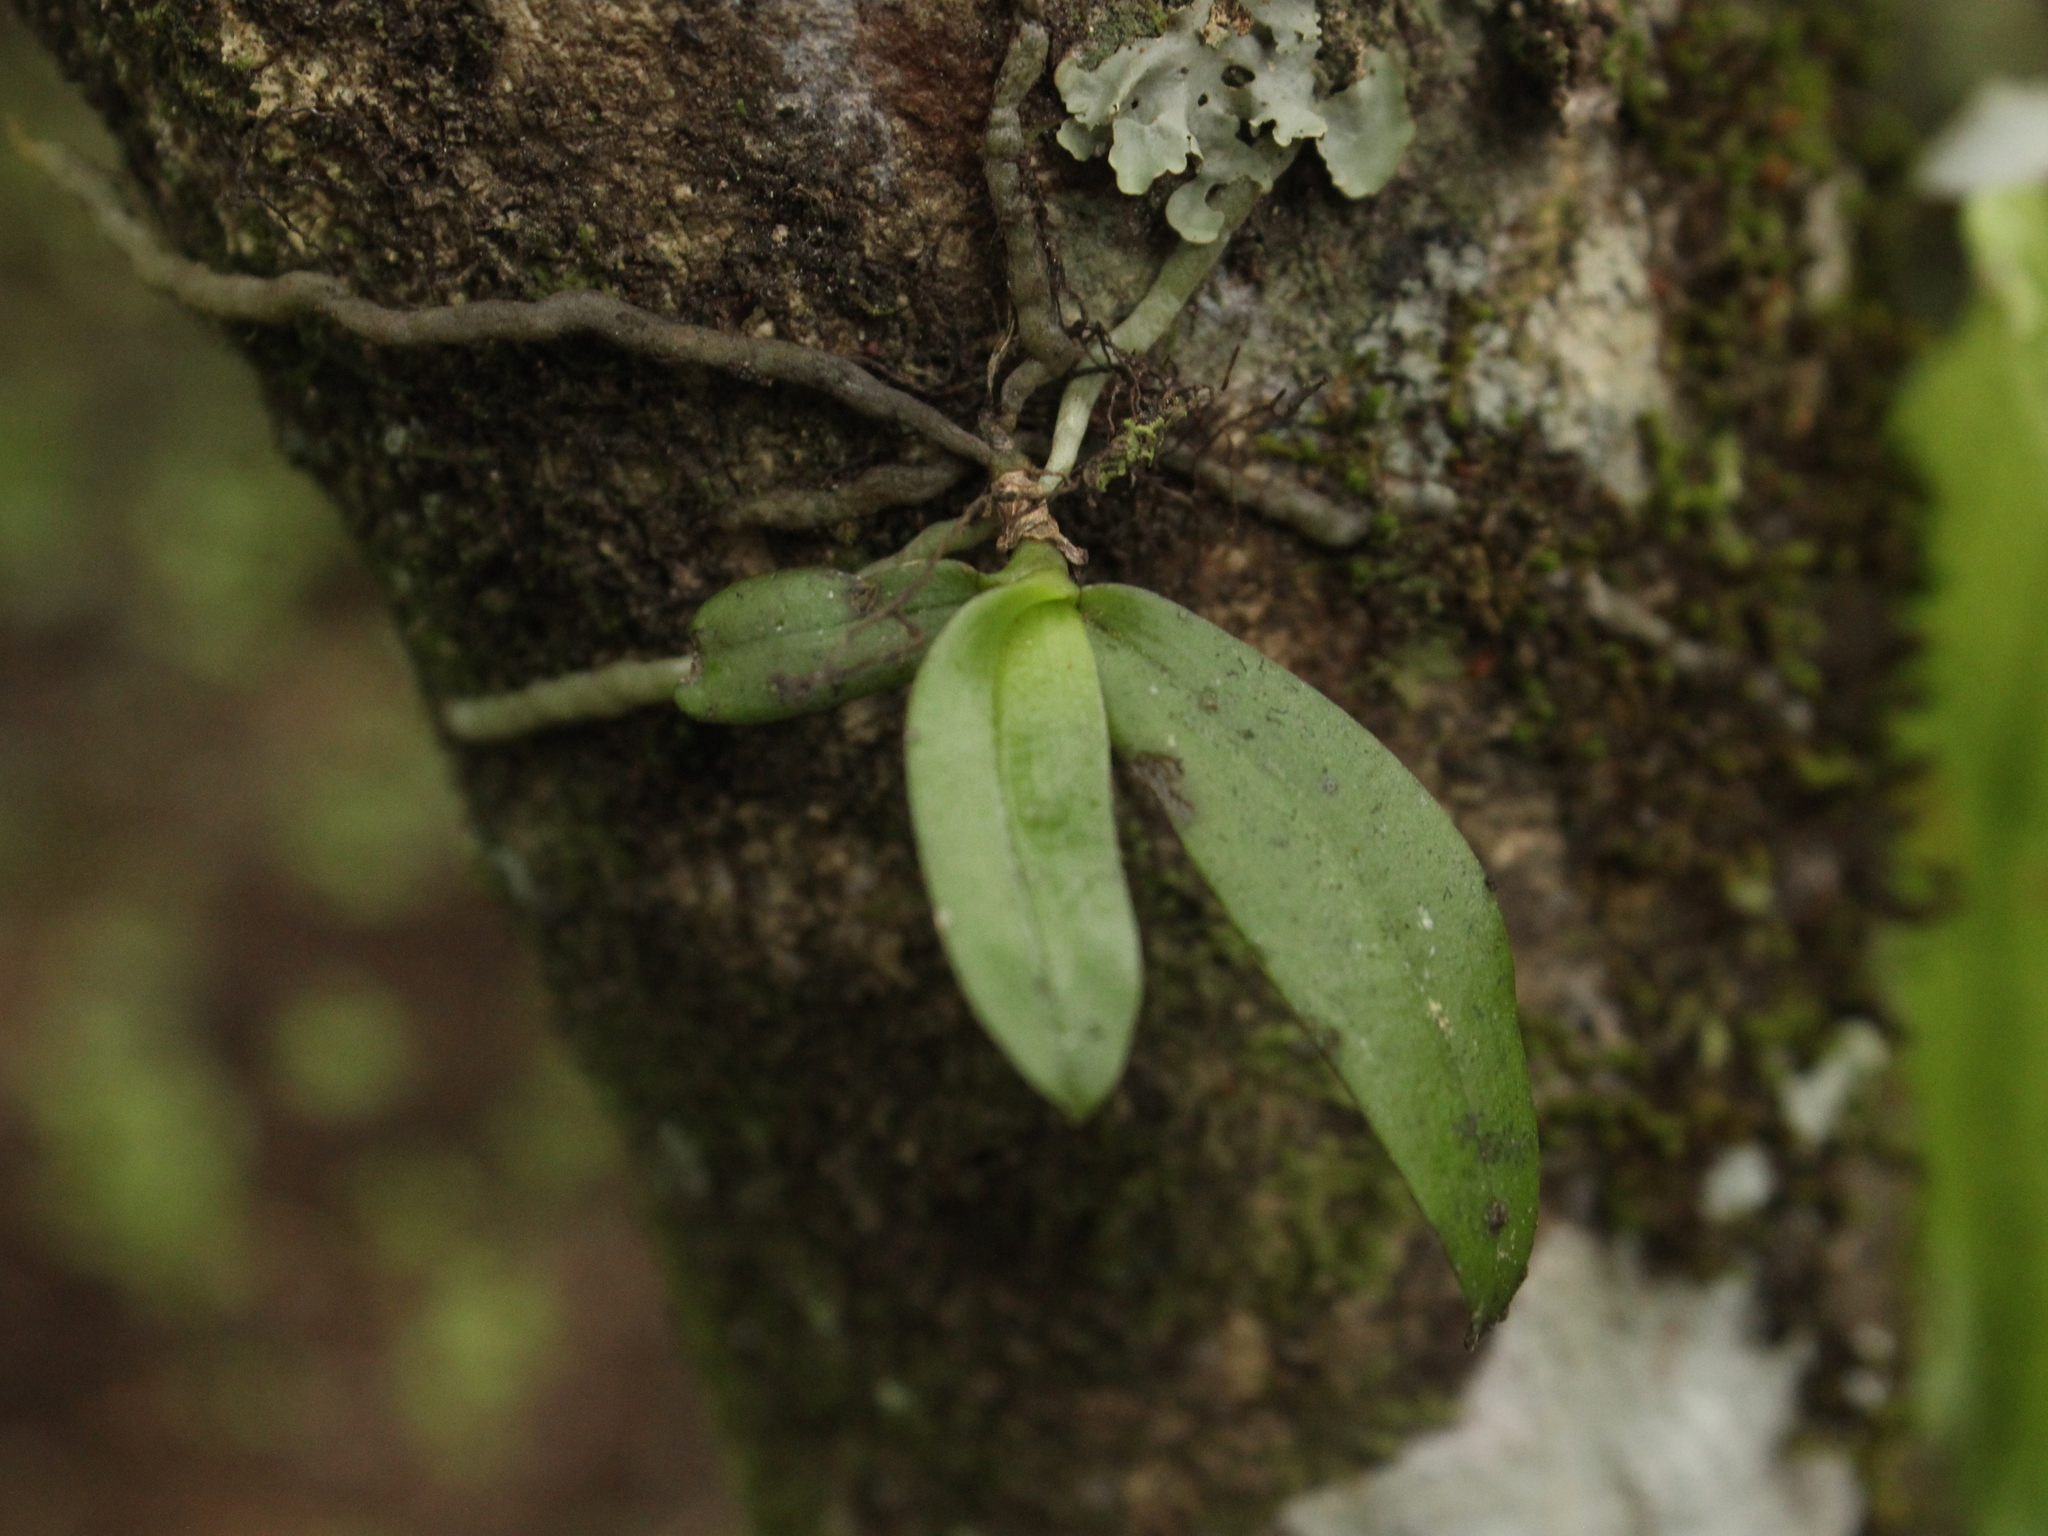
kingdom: Plantae
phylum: Tracheophyta
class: Liliopsida
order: Asparagales
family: Orchidaceae
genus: Drymoanthus
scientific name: Drymoanthus adversus
